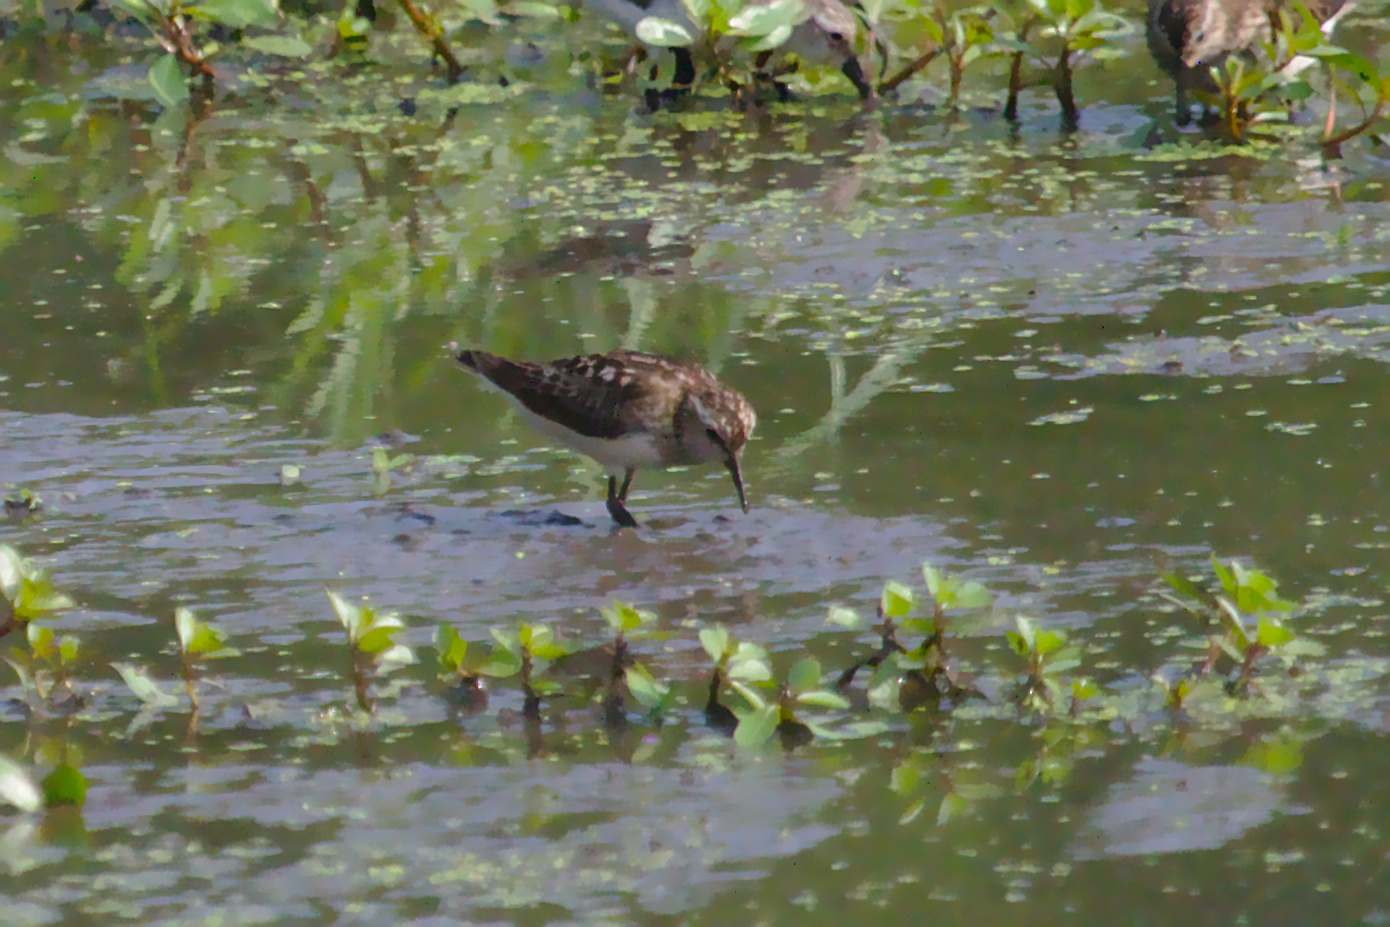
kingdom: Animalia
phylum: Chordata
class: Aves
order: Charadriiformes
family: Scolopacidae
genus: Calidris
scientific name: Calidris minutilla
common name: Least sandpiper
